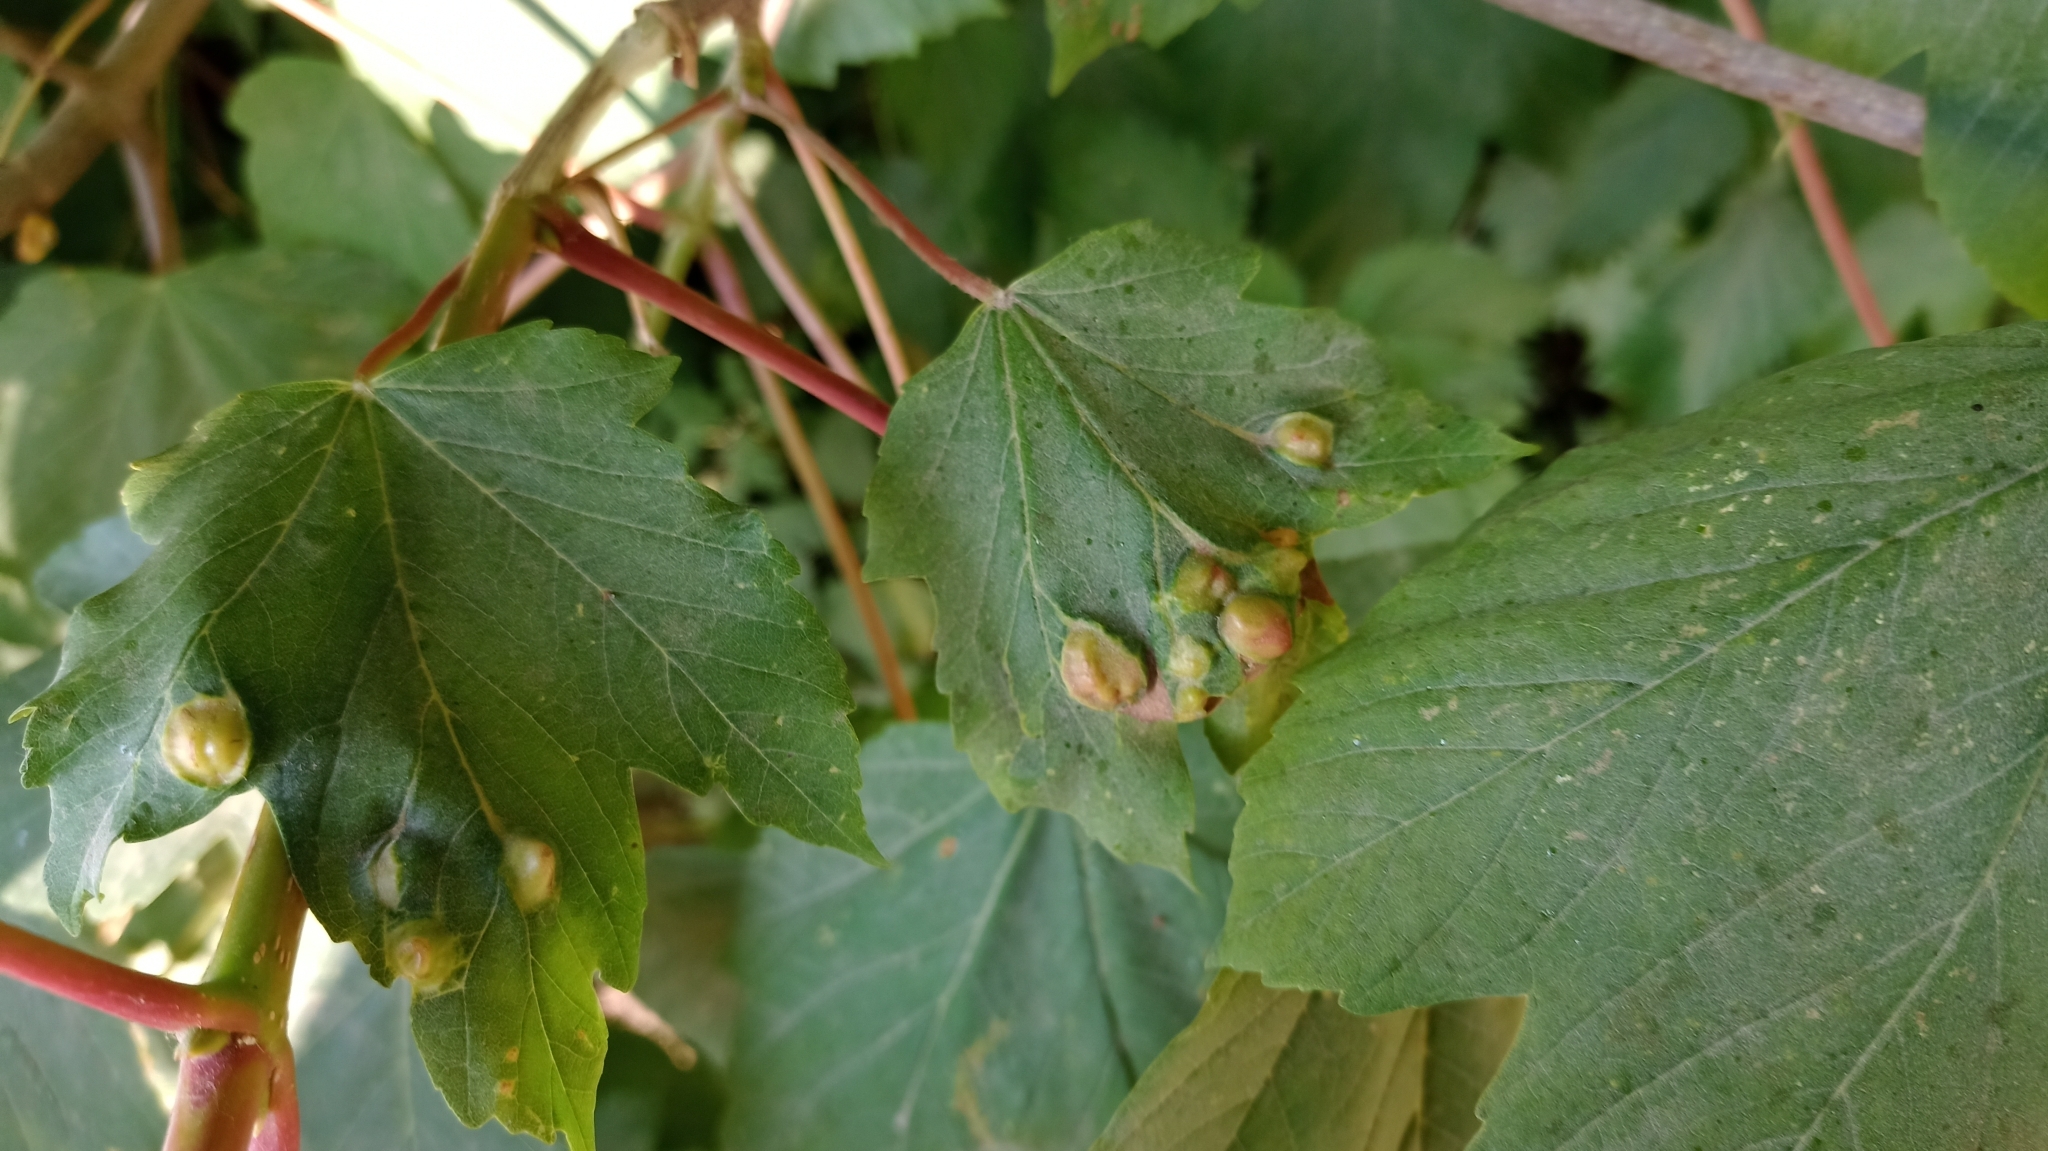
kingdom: Animalia
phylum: Arthropoda
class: Insecta
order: Hymenoptera
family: Cynipidae
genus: Pediaspis
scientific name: Pediaspis aceris
